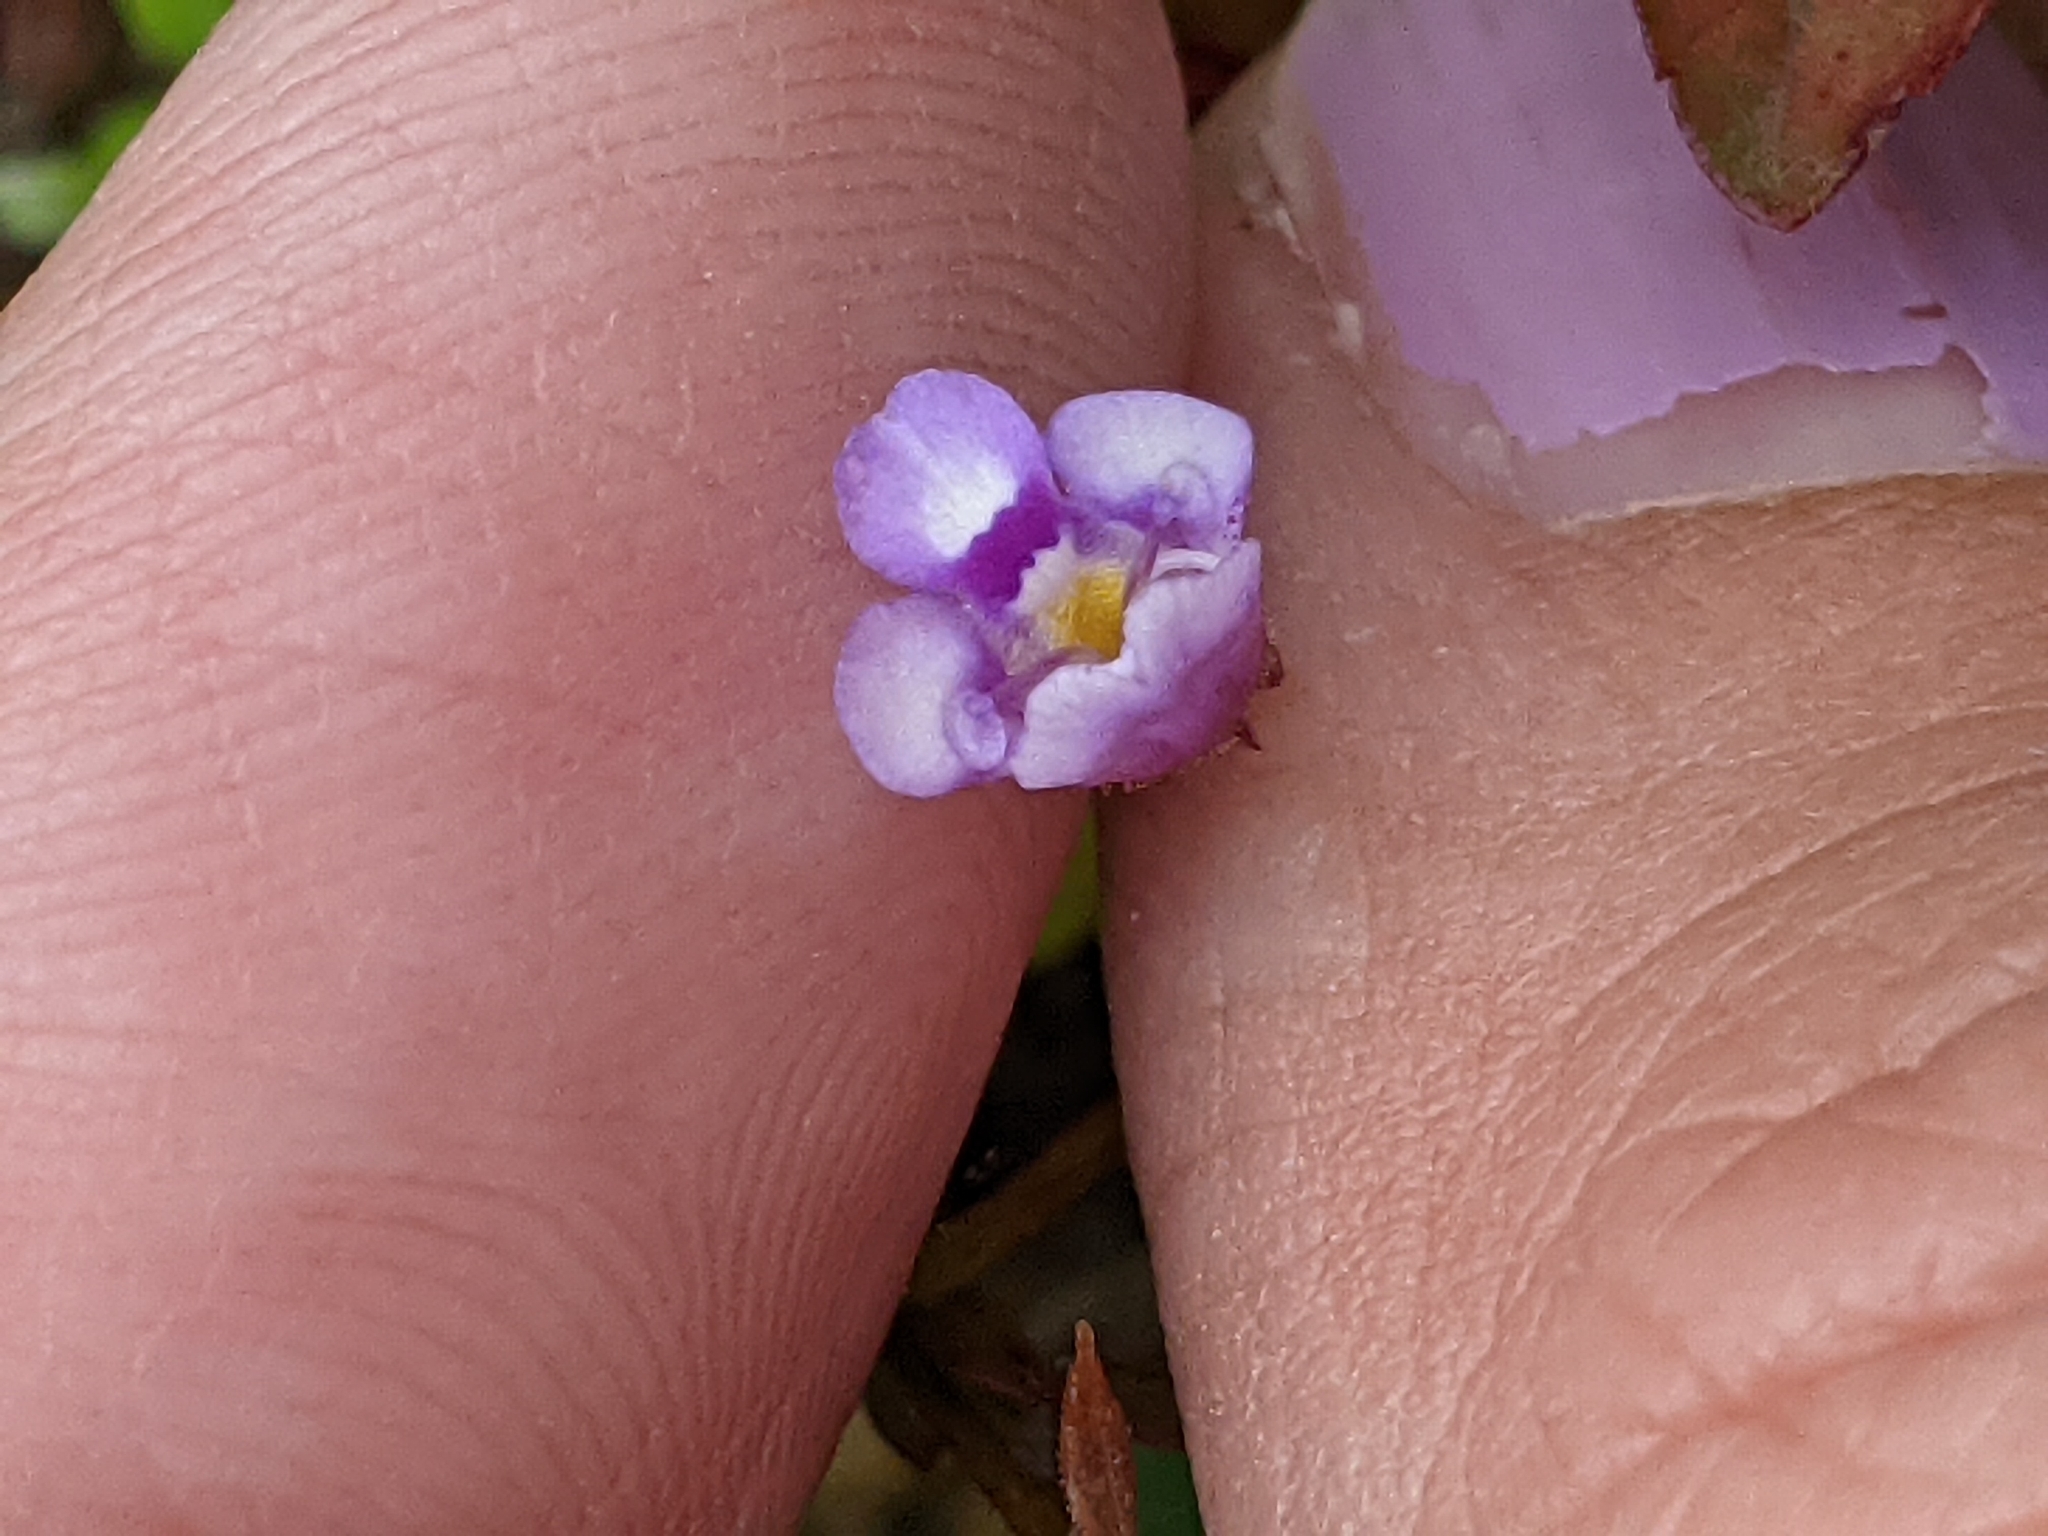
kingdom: Plantae
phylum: Tracheophyta
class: Magnoliopsida
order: Lamiales
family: Linderniaceae
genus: Torenia
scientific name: Torenia crustacea
